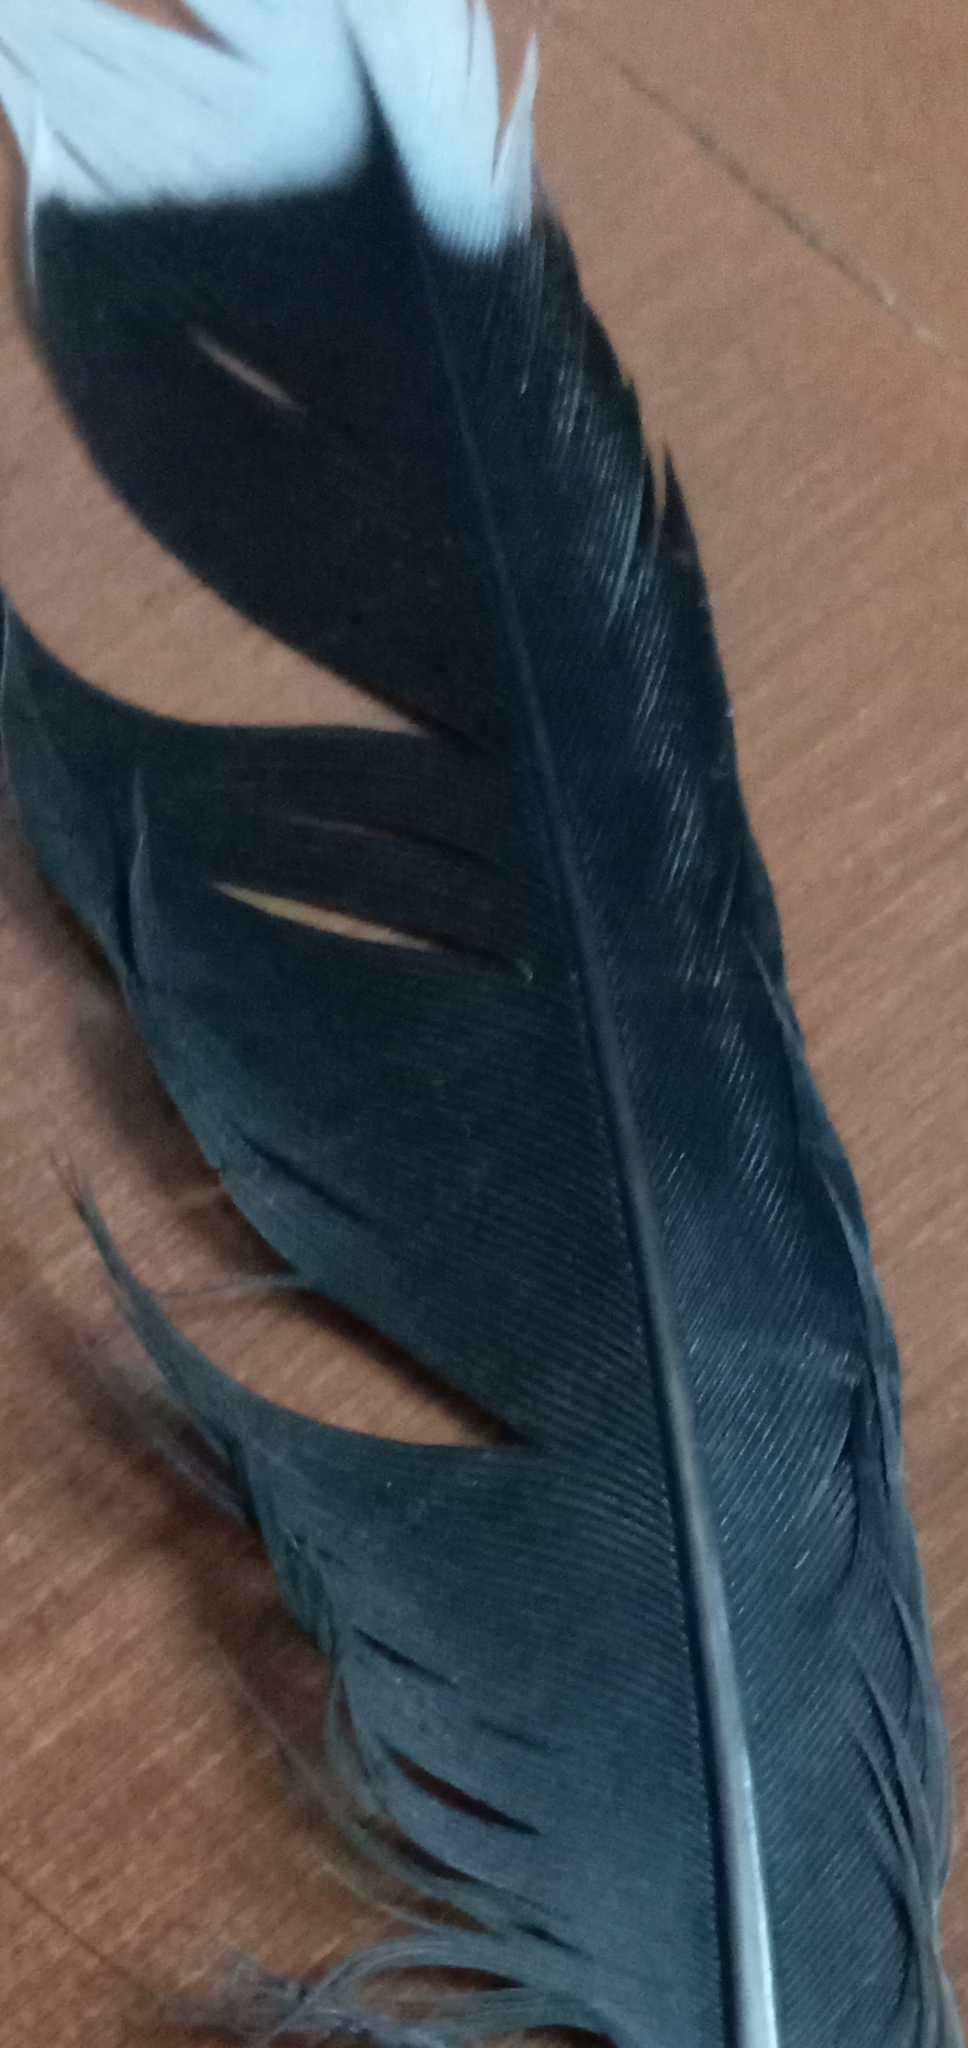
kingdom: Animalia
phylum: Chordata
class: Aves
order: Columbiformes
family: Columbidae
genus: Spilopelia
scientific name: Spilopelia chinensis
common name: Spotted dove
